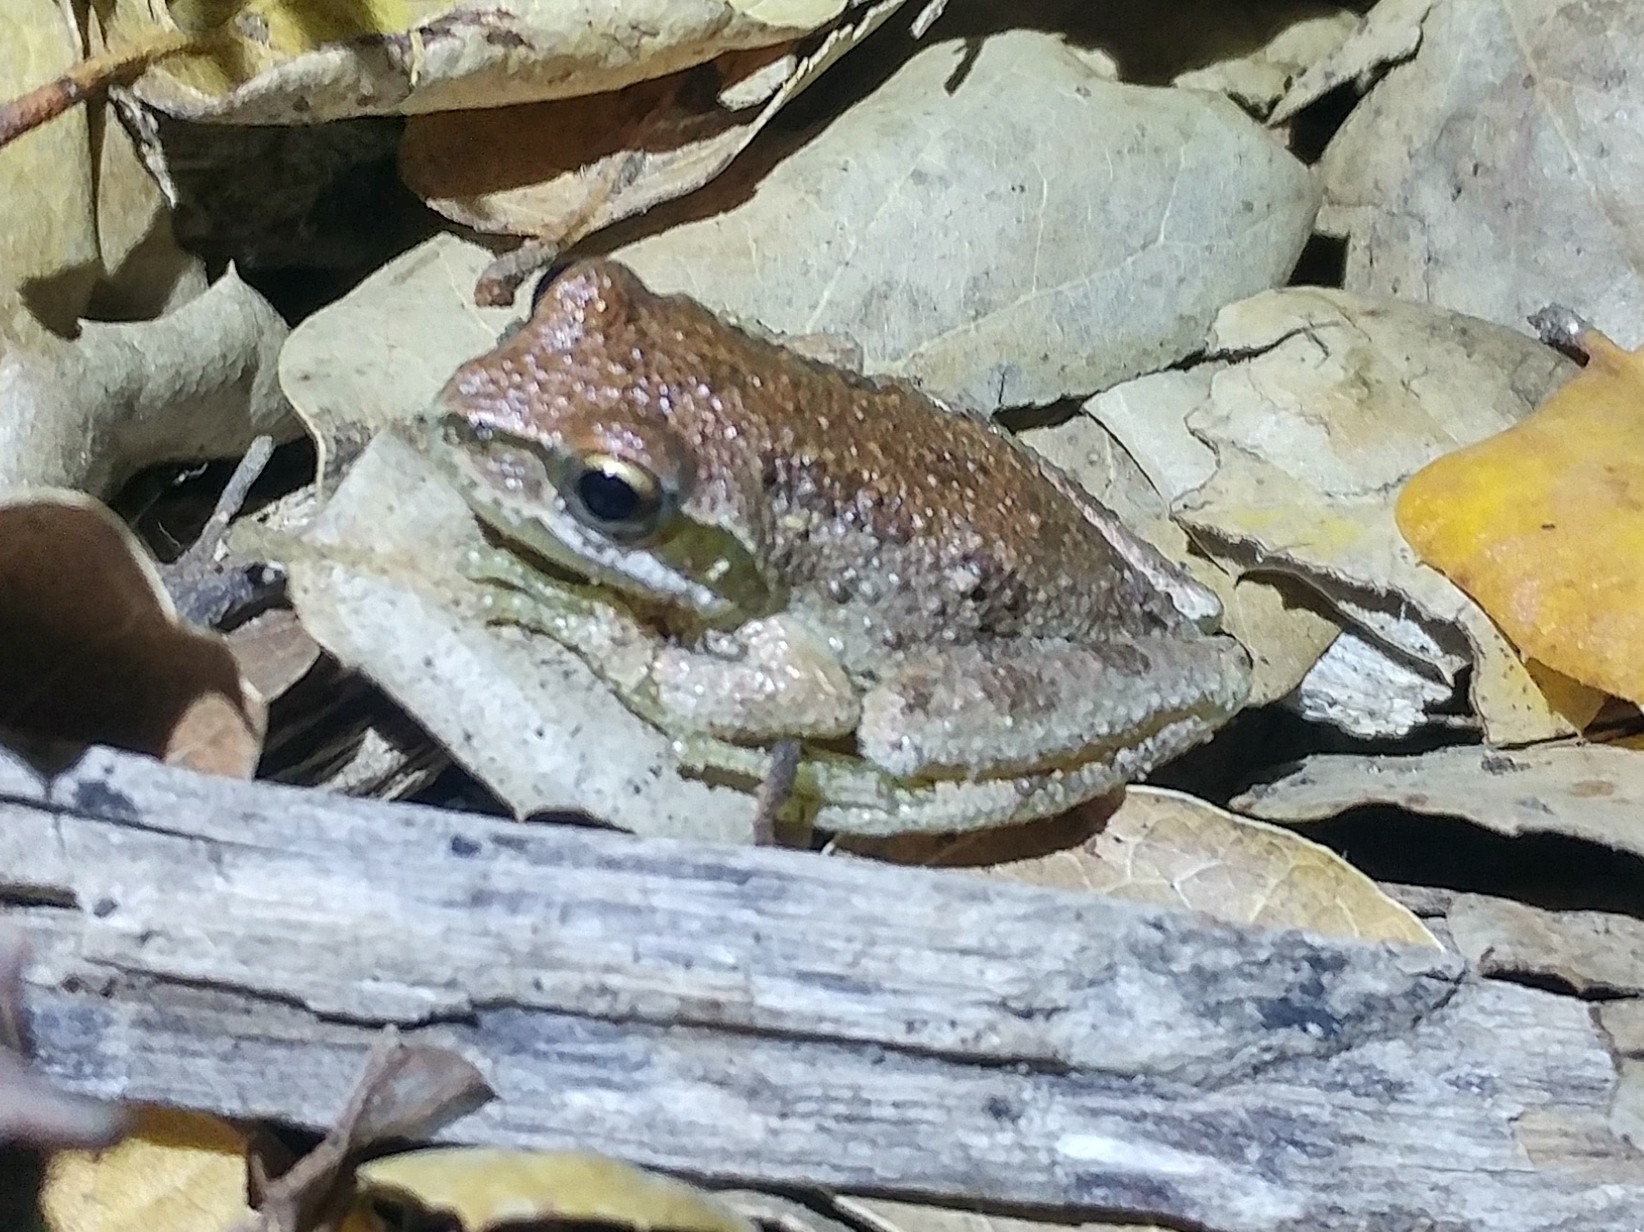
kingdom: Animalia
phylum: Chordata
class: Amphibia
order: Anura
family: Hylidae
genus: Pseudacris
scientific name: Pseudacris regilla
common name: Pacific chorus frog
